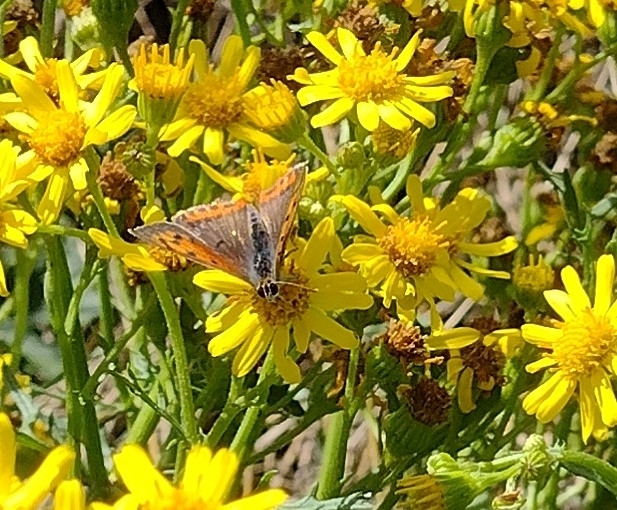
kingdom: Animalia
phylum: Arthropoda
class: Insecta
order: Lepidoptera
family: Lycaenidae
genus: Lycaena
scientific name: Lycaena phlaeas
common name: Small copper
